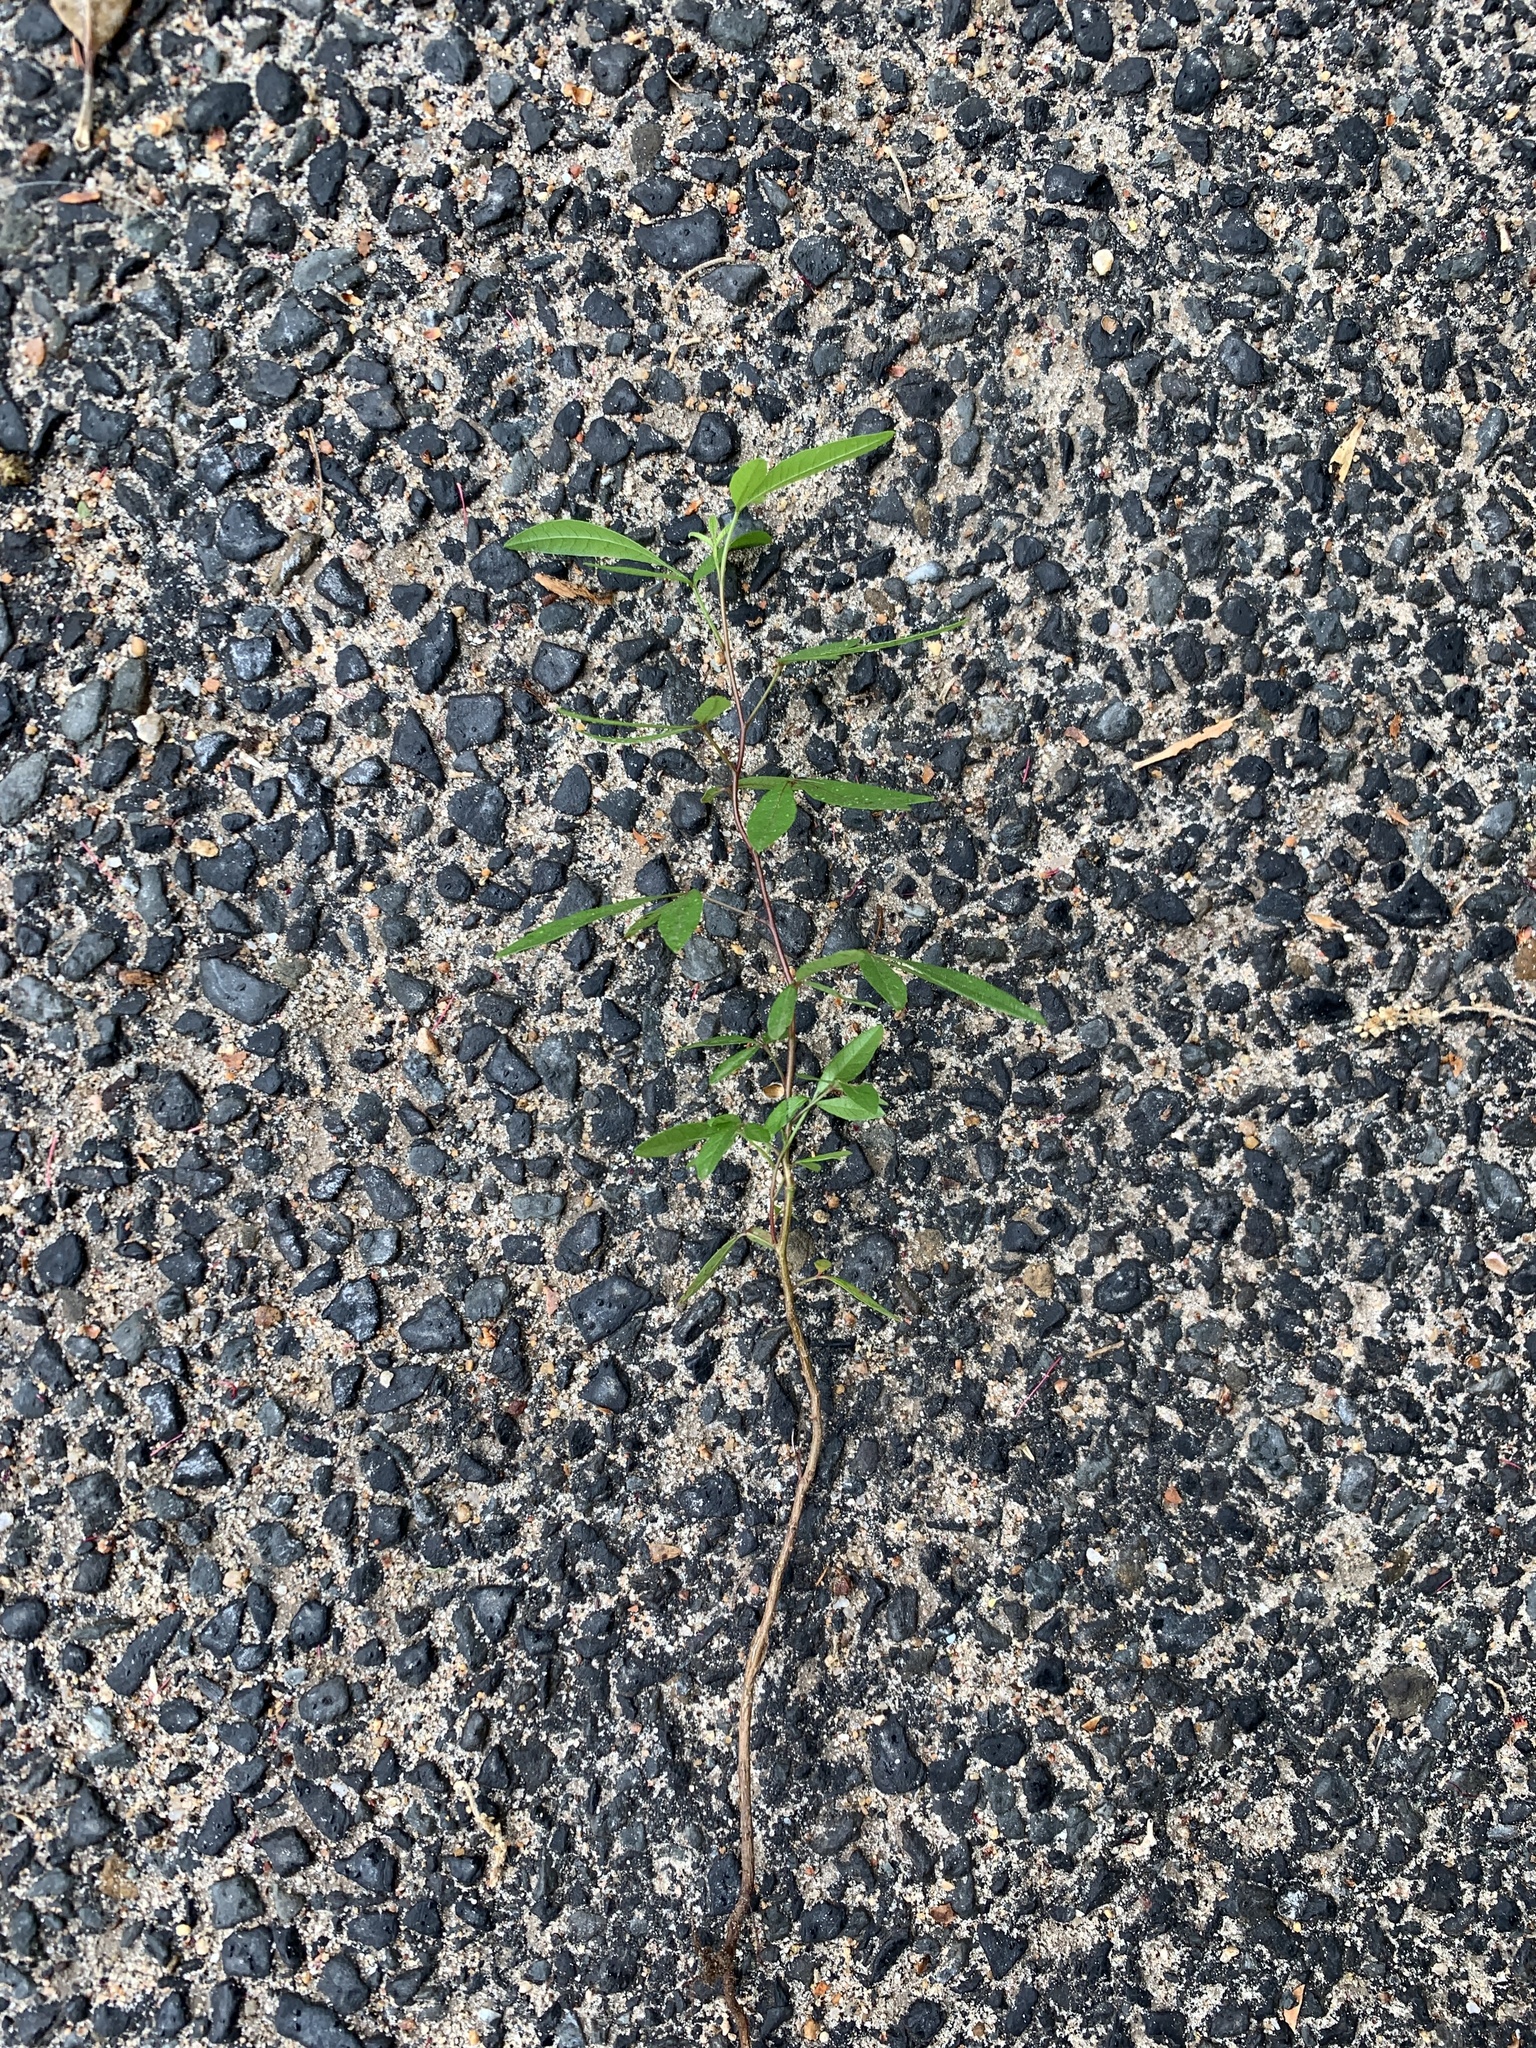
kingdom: Plantae
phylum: Tracheophyta
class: Magnoliopsida
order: Sapindales
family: Anacardiaceae
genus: Searsia
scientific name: Searsia pendulina
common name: White karee
